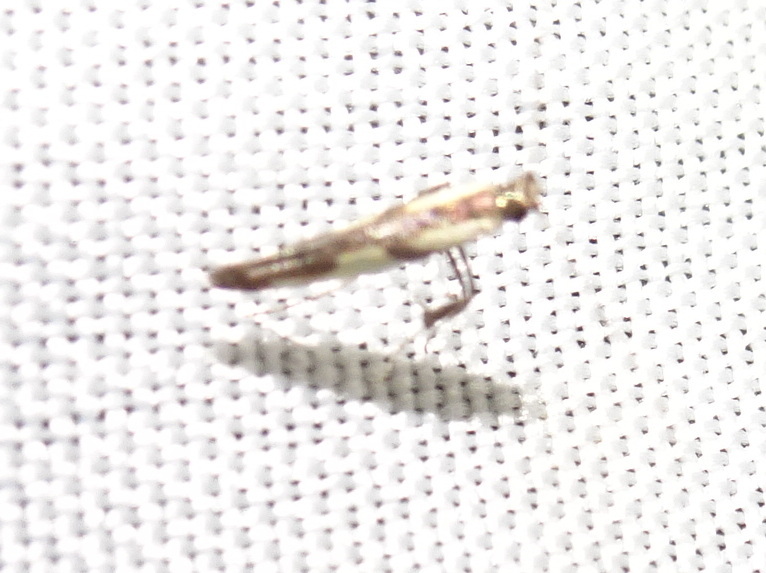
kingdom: Animalia
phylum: Arthropoda
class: Insecta
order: Lepidoptera
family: Gracillariidae
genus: Caloptilia
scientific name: Caloptilia blandella
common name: Walnut caloptilia moth
